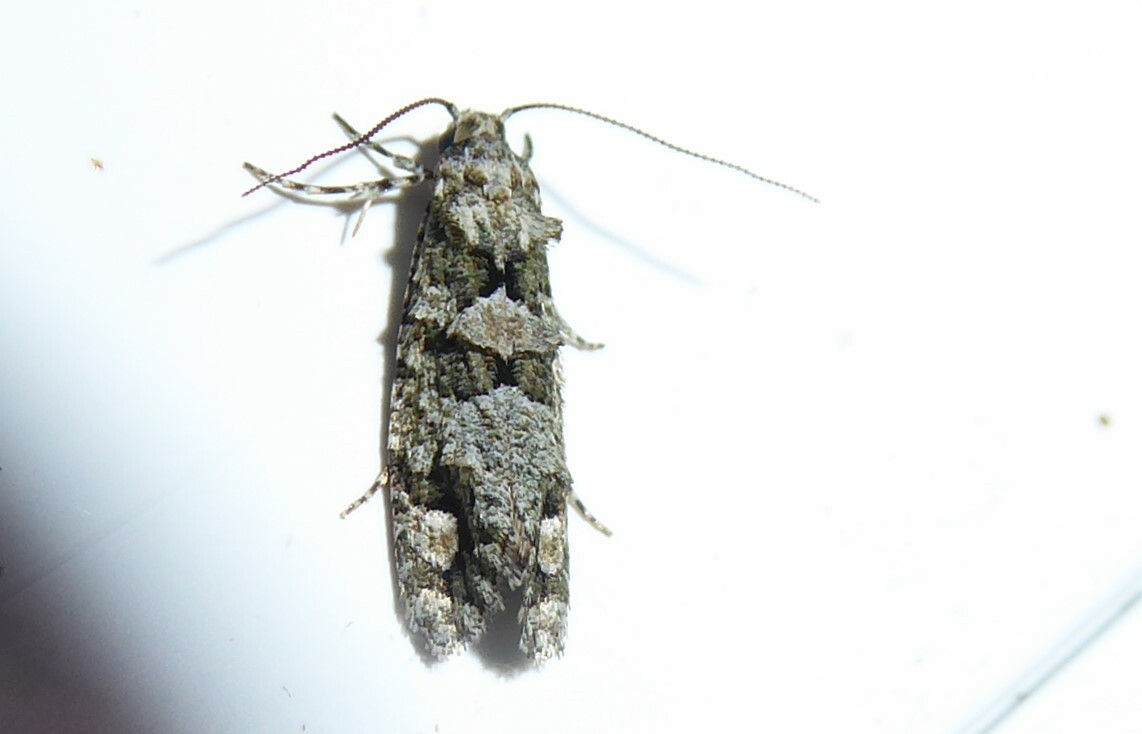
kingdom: Animalia
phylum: Arthropoda
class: Insecta
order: Lepidoptera
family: Tineidae
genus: Lysiphragma
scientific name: Lysiphragma howesii
